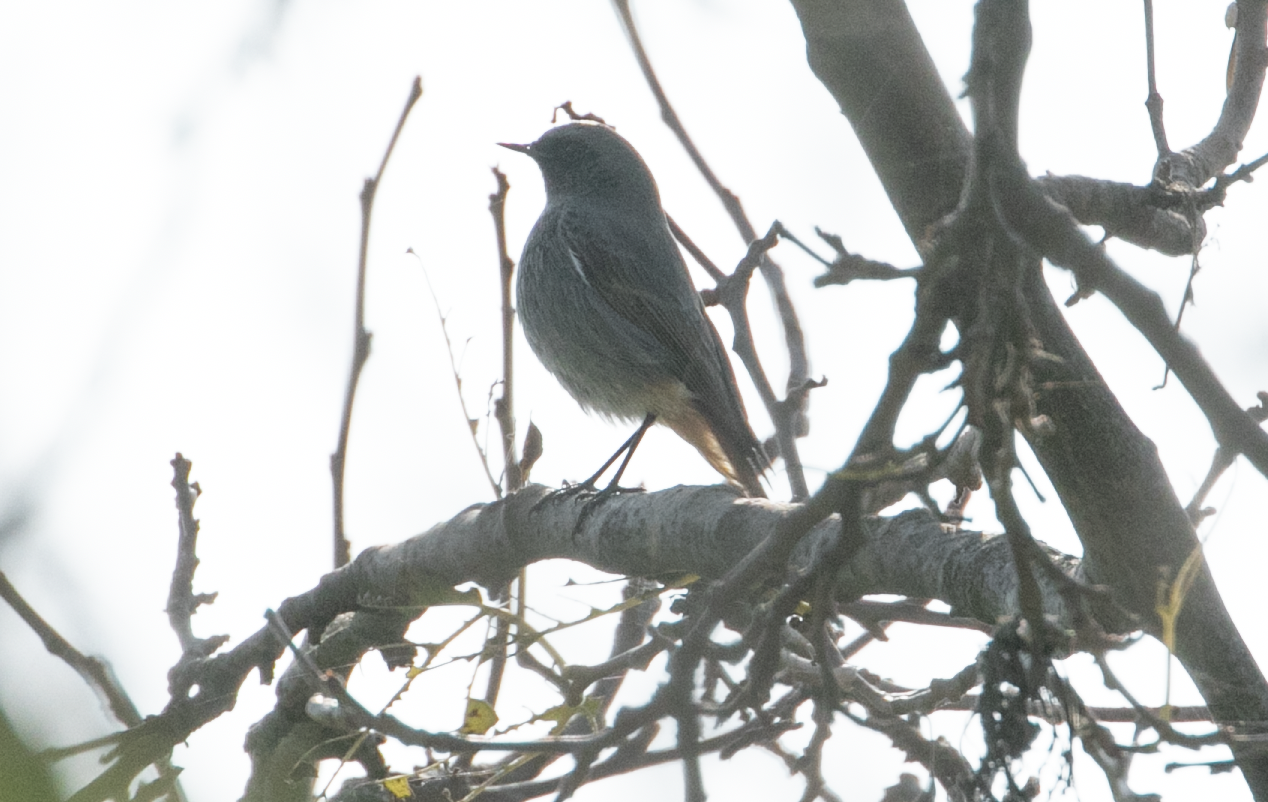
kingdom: Animalia
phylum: Chordata
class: Aves
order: Passeriformes
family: Muscicapidae
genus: Phoenicurus
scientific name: Phoenicurus ochruros
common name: Black redstart
